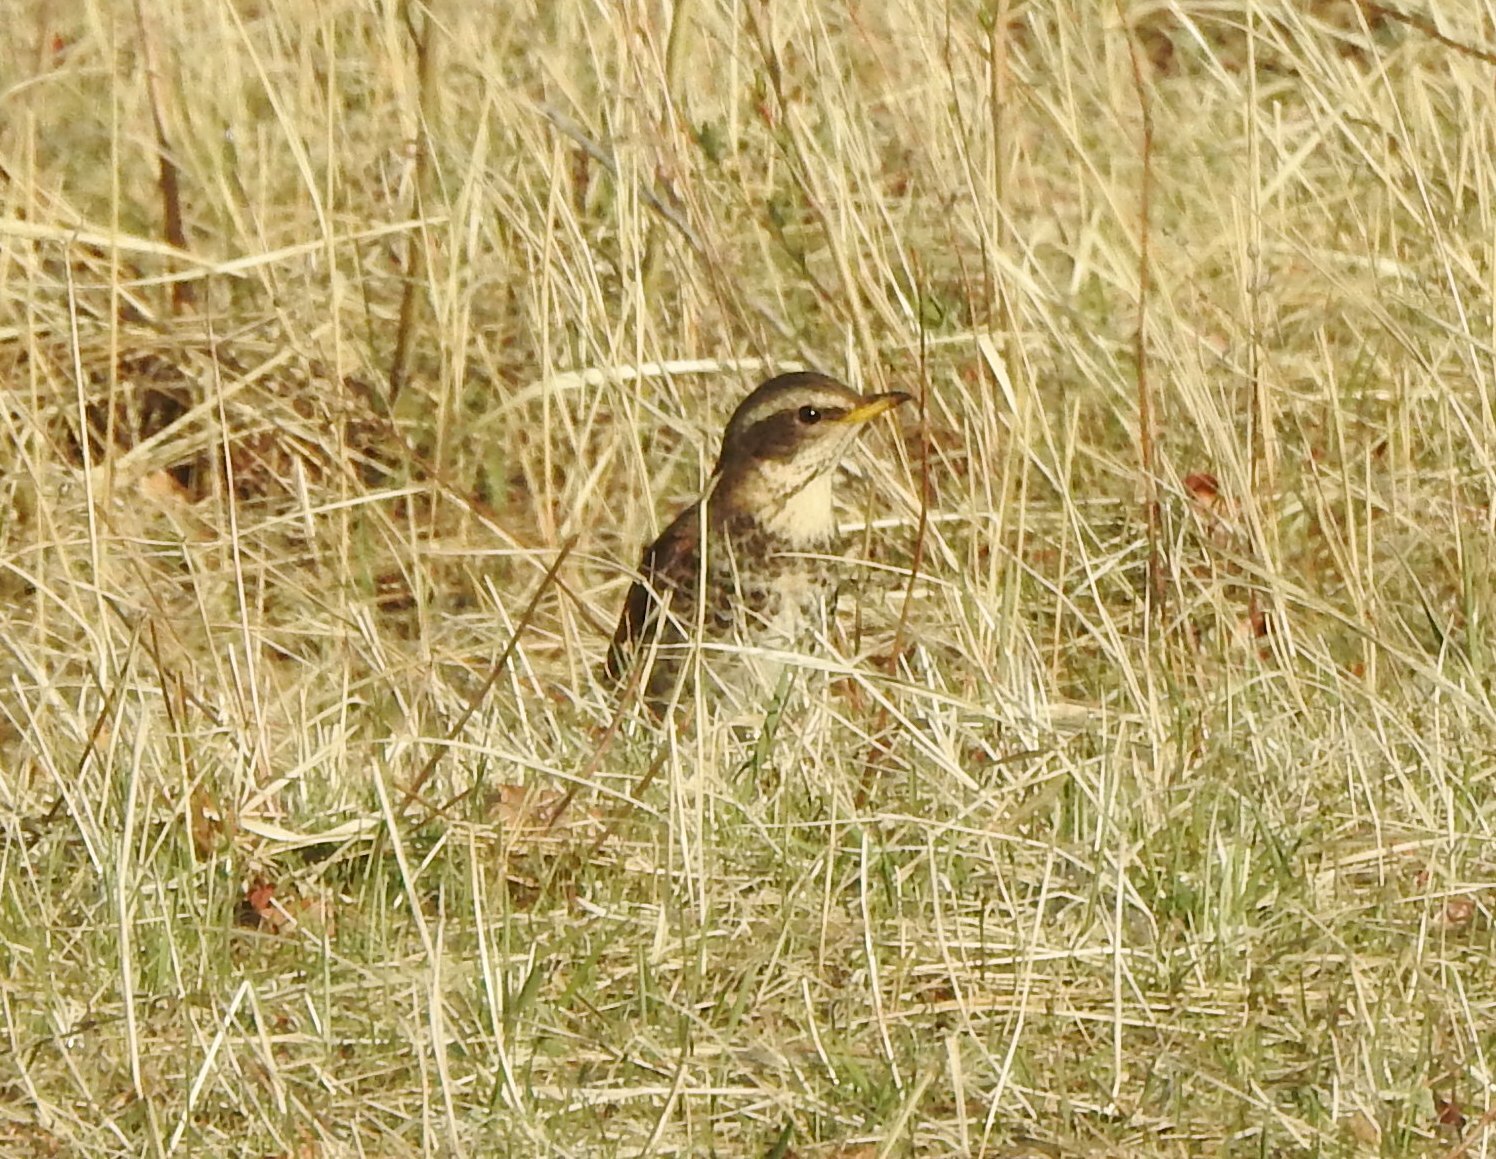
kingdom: Animalia
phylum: Chordata
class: Aves
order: Passeriformes
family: Turdidae
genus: Turdus
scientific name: Turdus eunomus
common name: Dusky thrush
